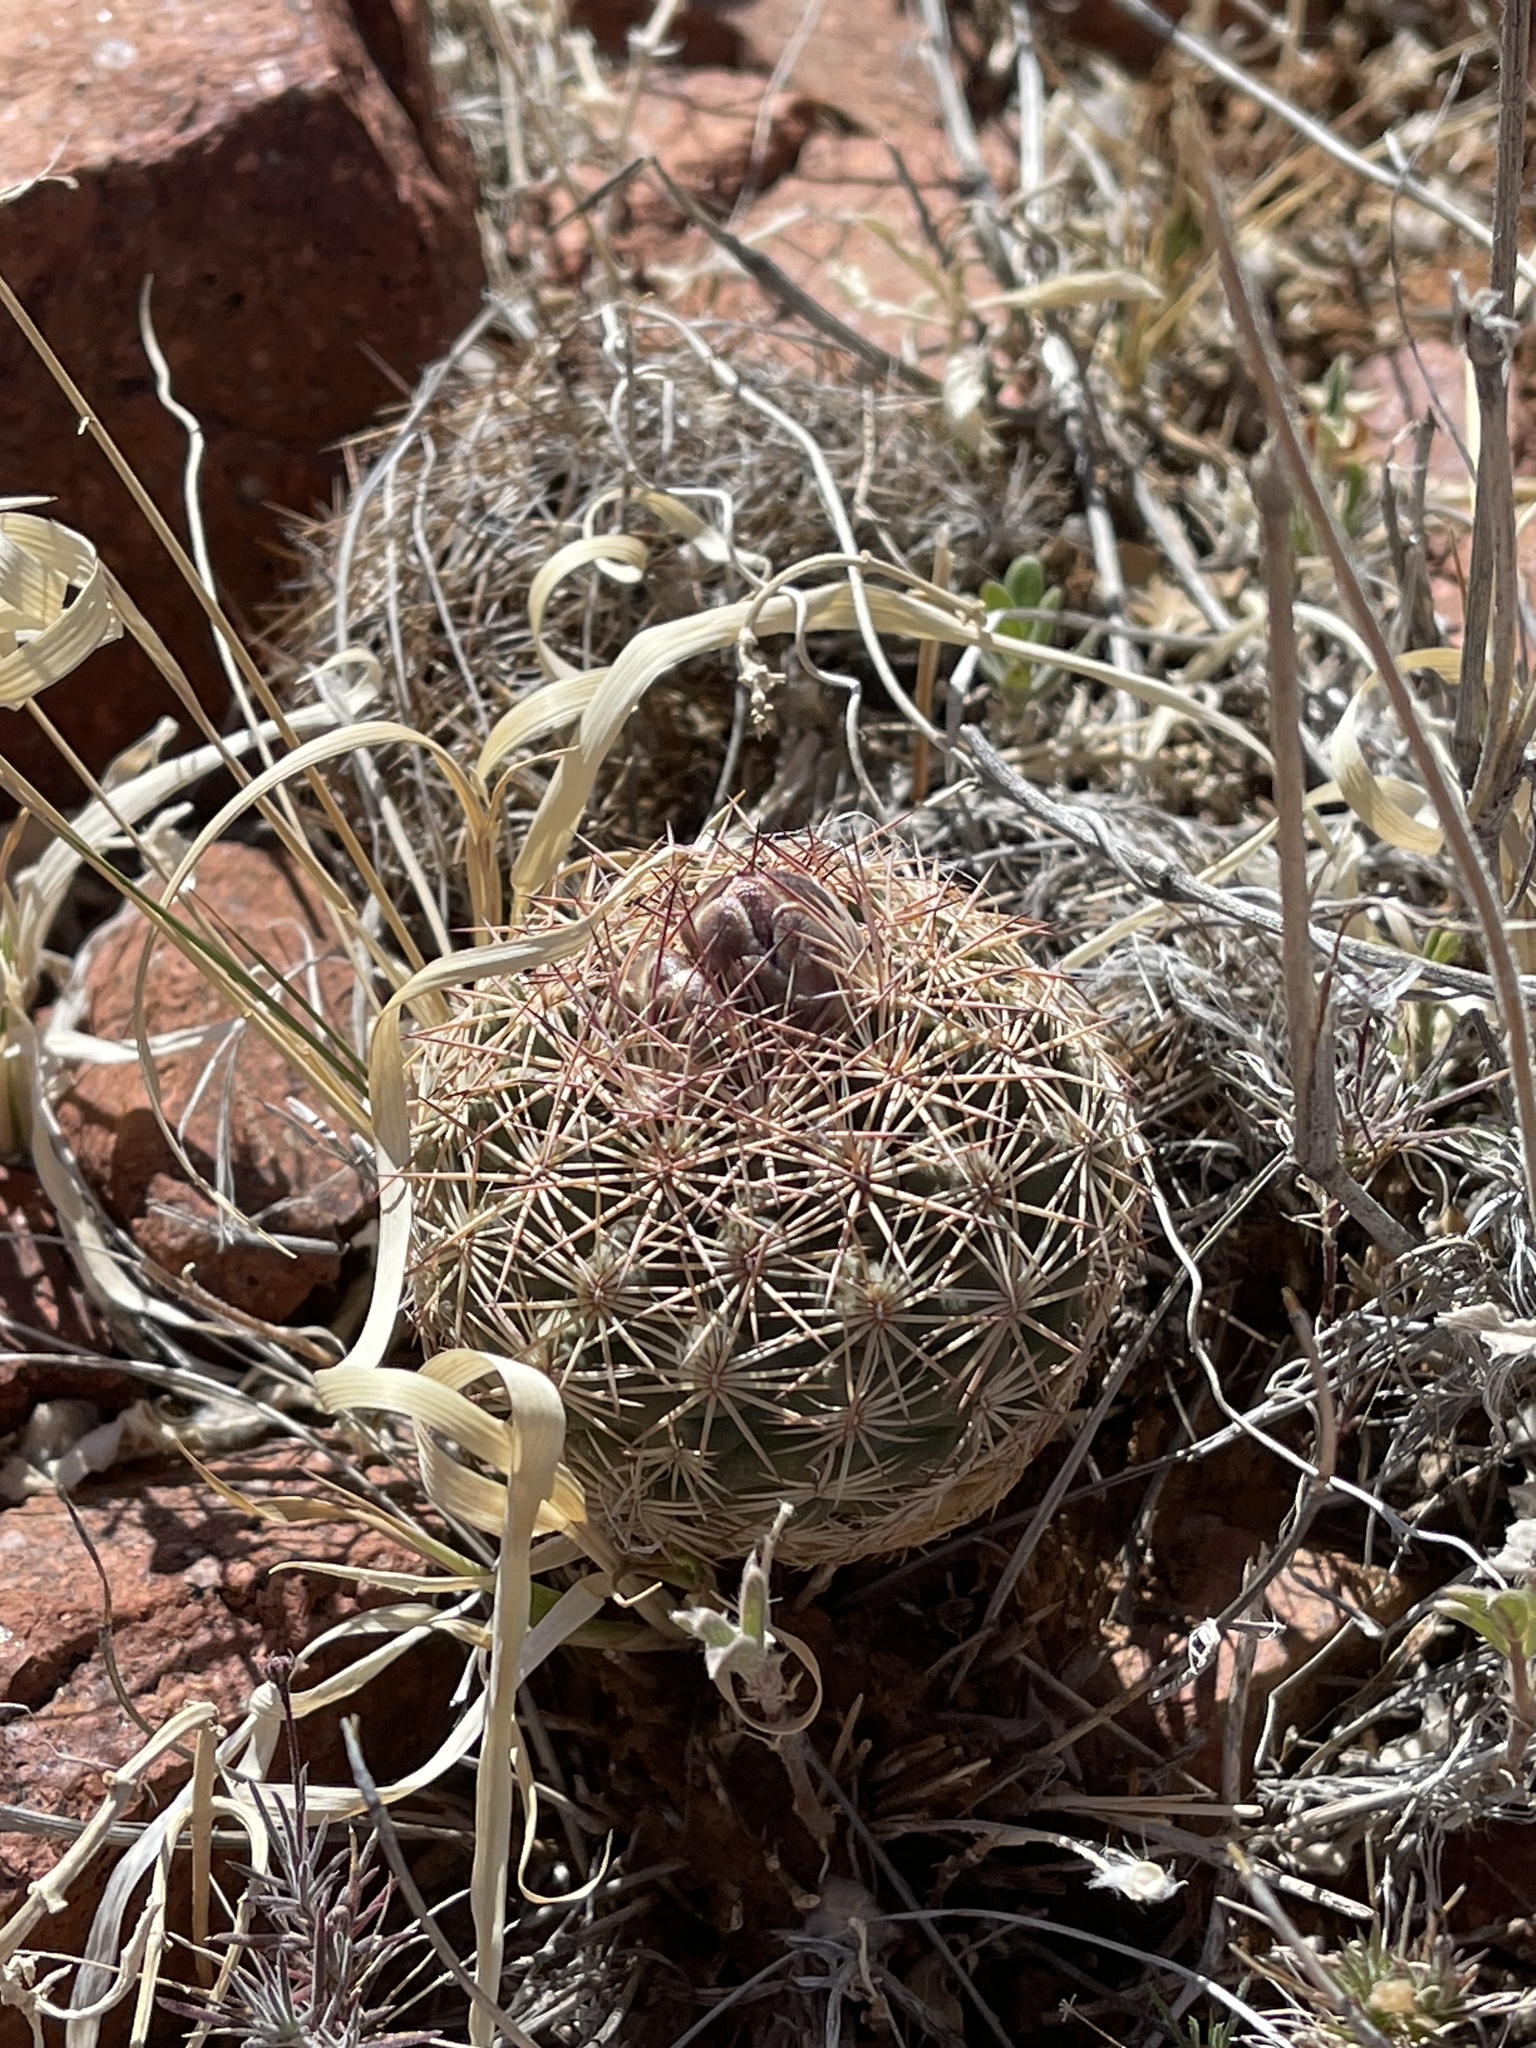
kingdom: Plantae
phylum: Tracheophyta
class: Magnoliopsida
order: Caryophyllales
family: Cactaceae
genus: Sclerocactus
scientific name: Sclerocactus intertextus
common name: White fish-hook cactus
